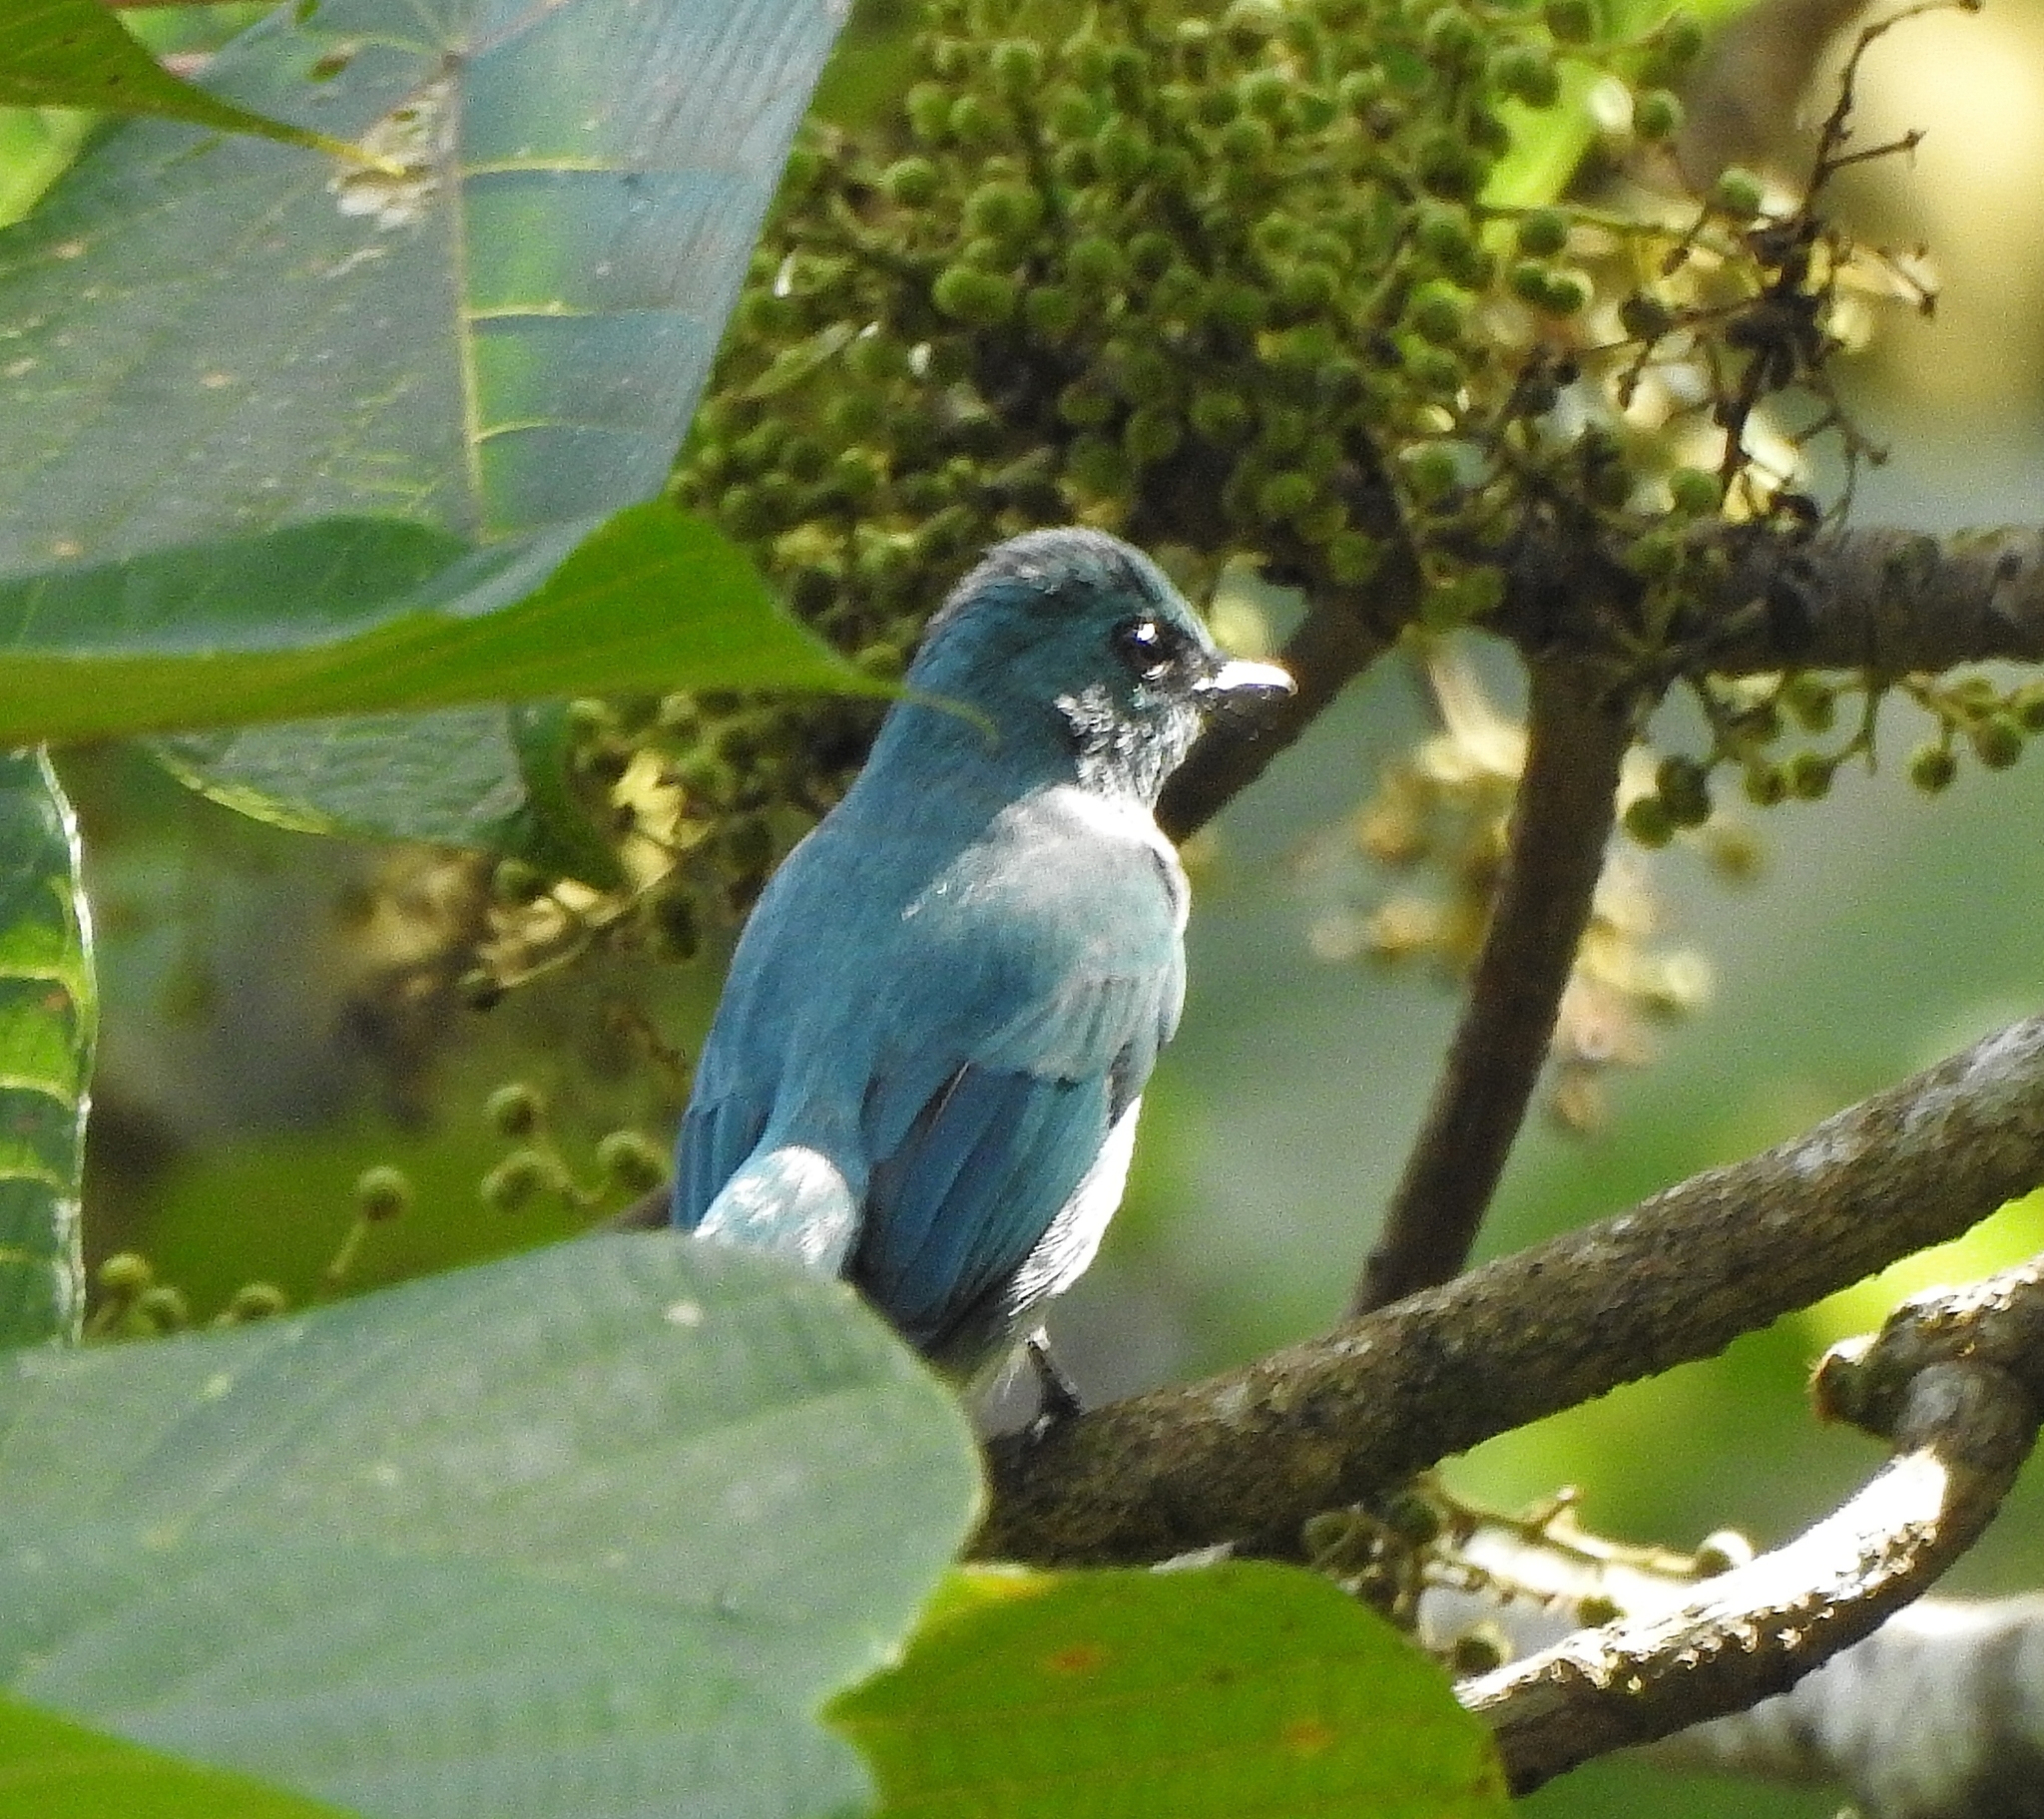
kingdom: Animalia
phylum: Chordata
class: Aves
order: Passeriformes
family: Muscicapidae
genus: Eumyias
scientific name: Eumyias thalassinus
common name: Verditer flycatcher
